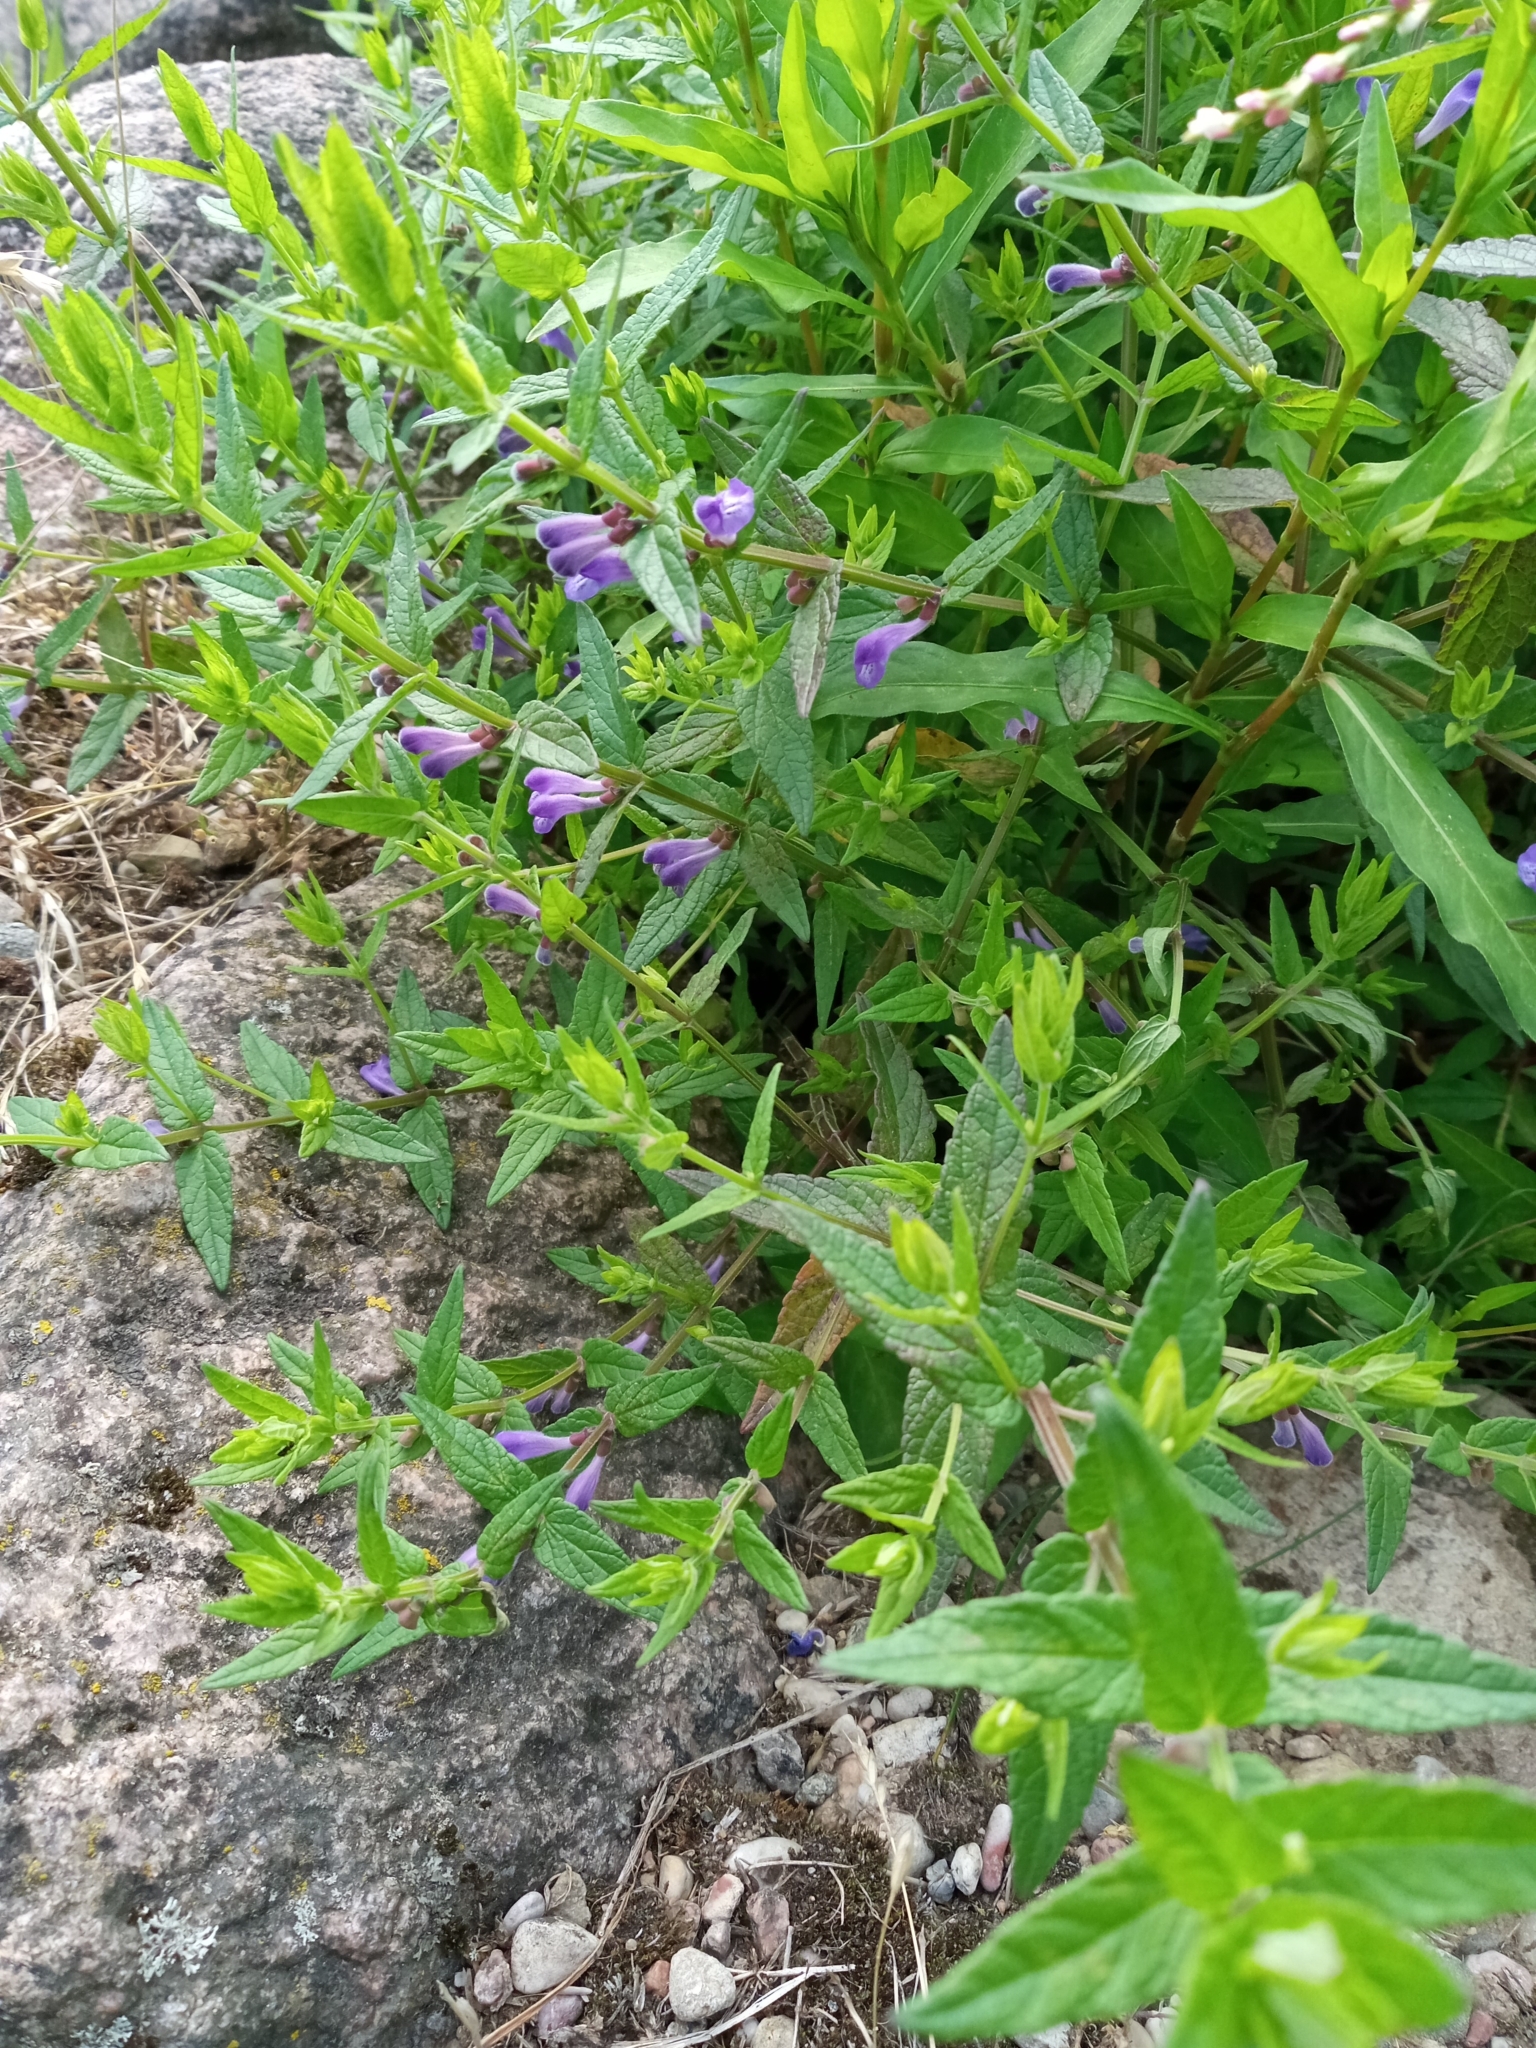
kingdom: Plantae
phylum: Tracheophyta
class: Magnoliopsida
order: Lamiales
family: Lamiaceae
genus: Scutellaria
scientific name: Scutellaria galericulata
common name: Skullcap
